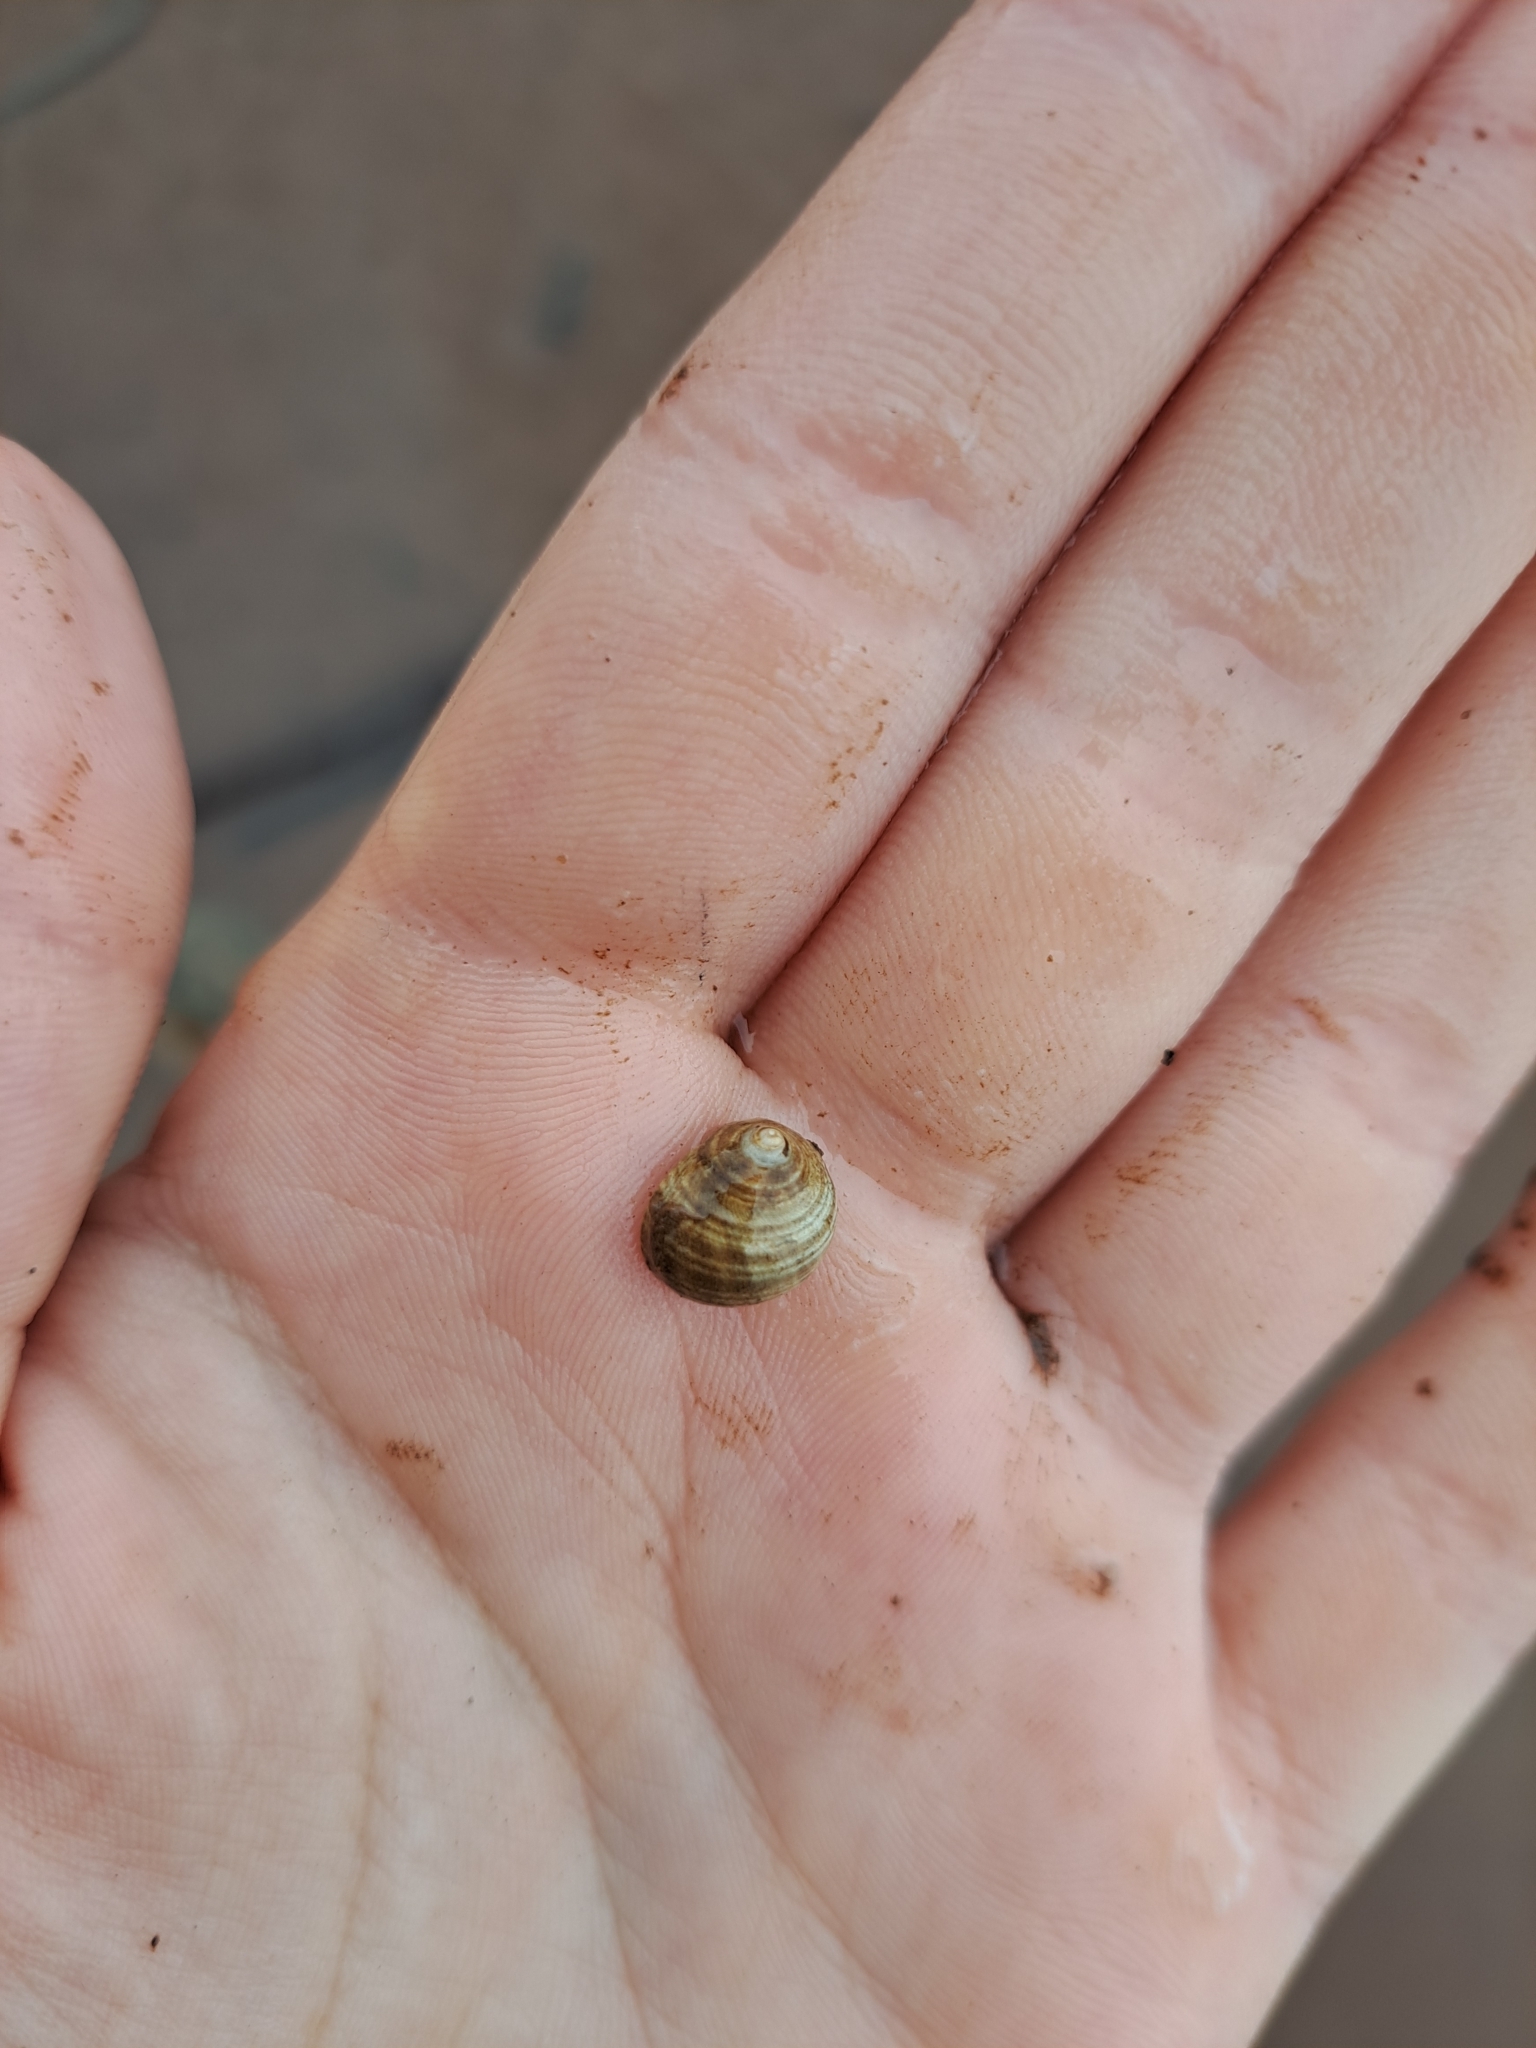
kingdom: Animalia
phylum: Mollusca
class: Gastropoda
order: Littorinimorpha
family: Littorinidae
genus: Littorina
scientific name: Littorina littorea
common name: Common periwinkle
